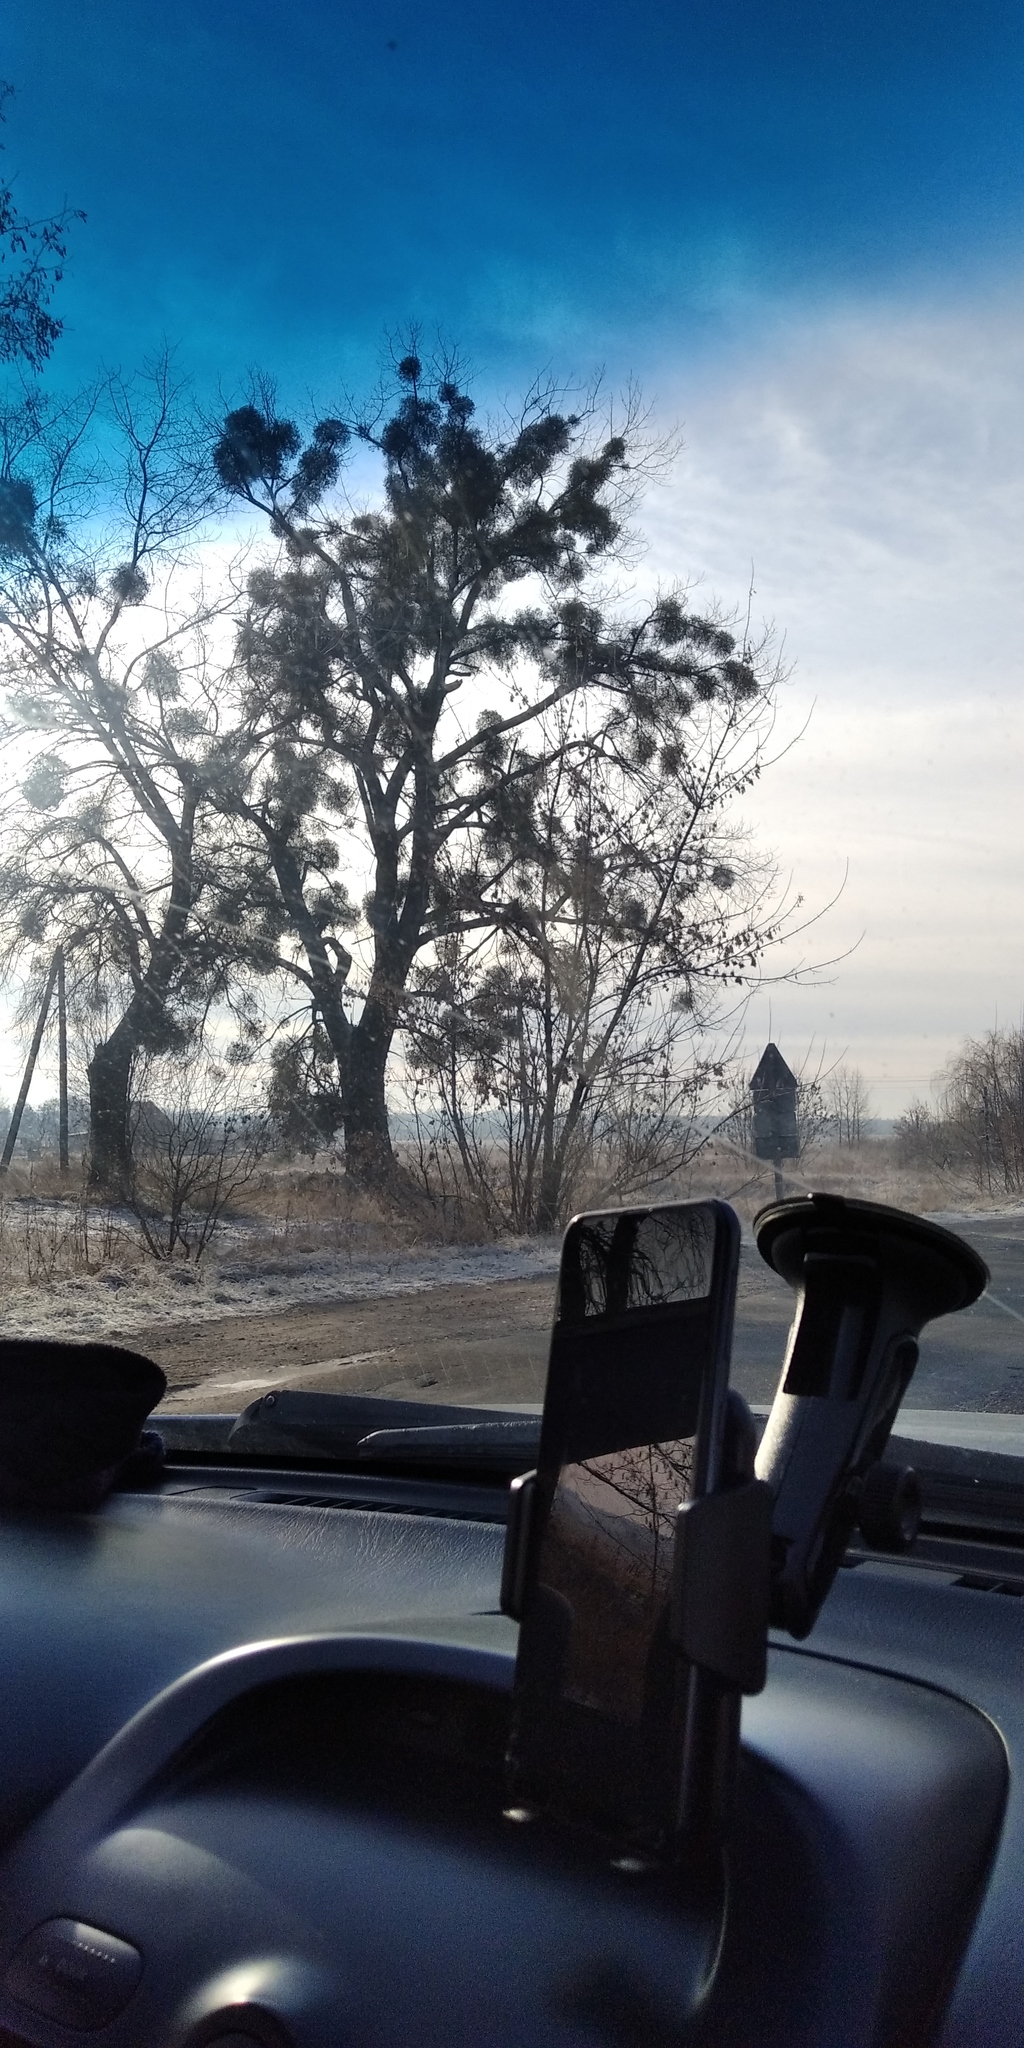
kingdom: Plantae
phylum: Tracheophyta
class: Magnoliopsida
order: Santalales
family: Viscaceae
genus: Viscum
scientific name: Viscum album
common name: Mistletoe
